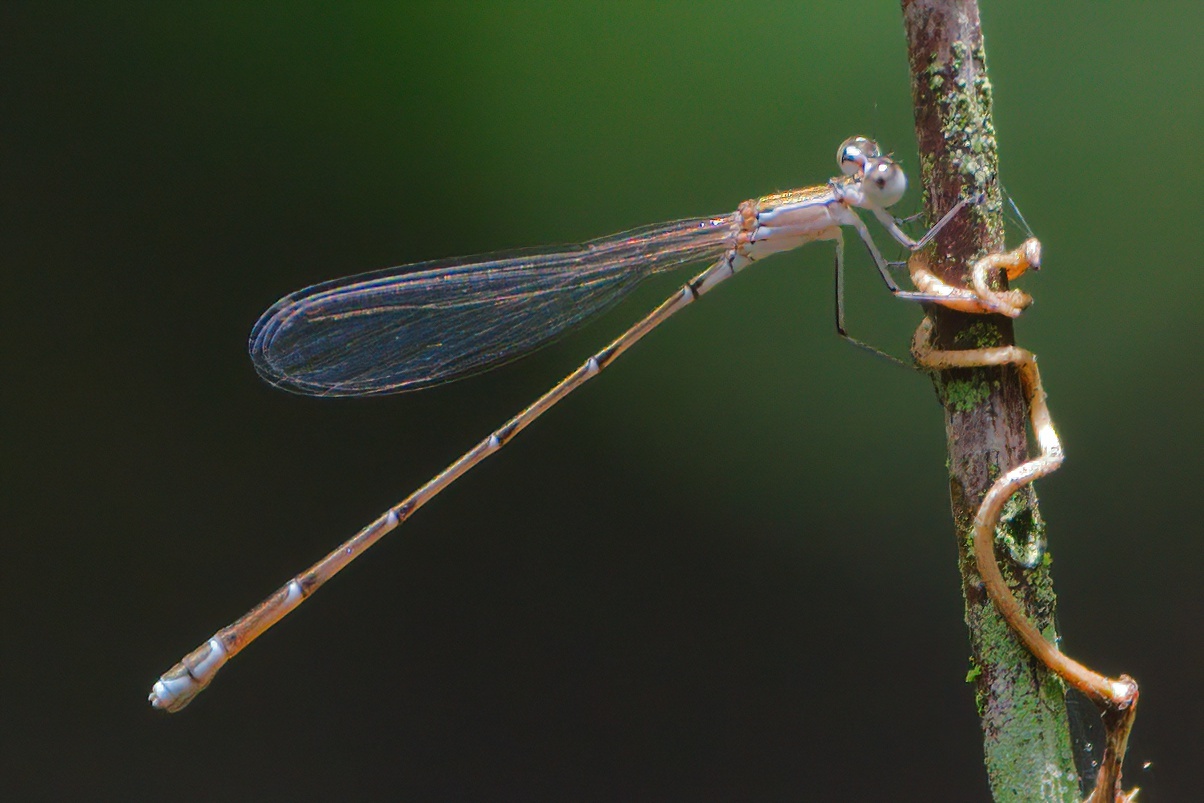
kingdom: Animalia
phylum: Arthropoda
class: Insecta
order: Odonata
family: Coenagrionidae
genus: Nehalennia
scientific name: Nehalennia pallidula
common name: Everglades sprite
